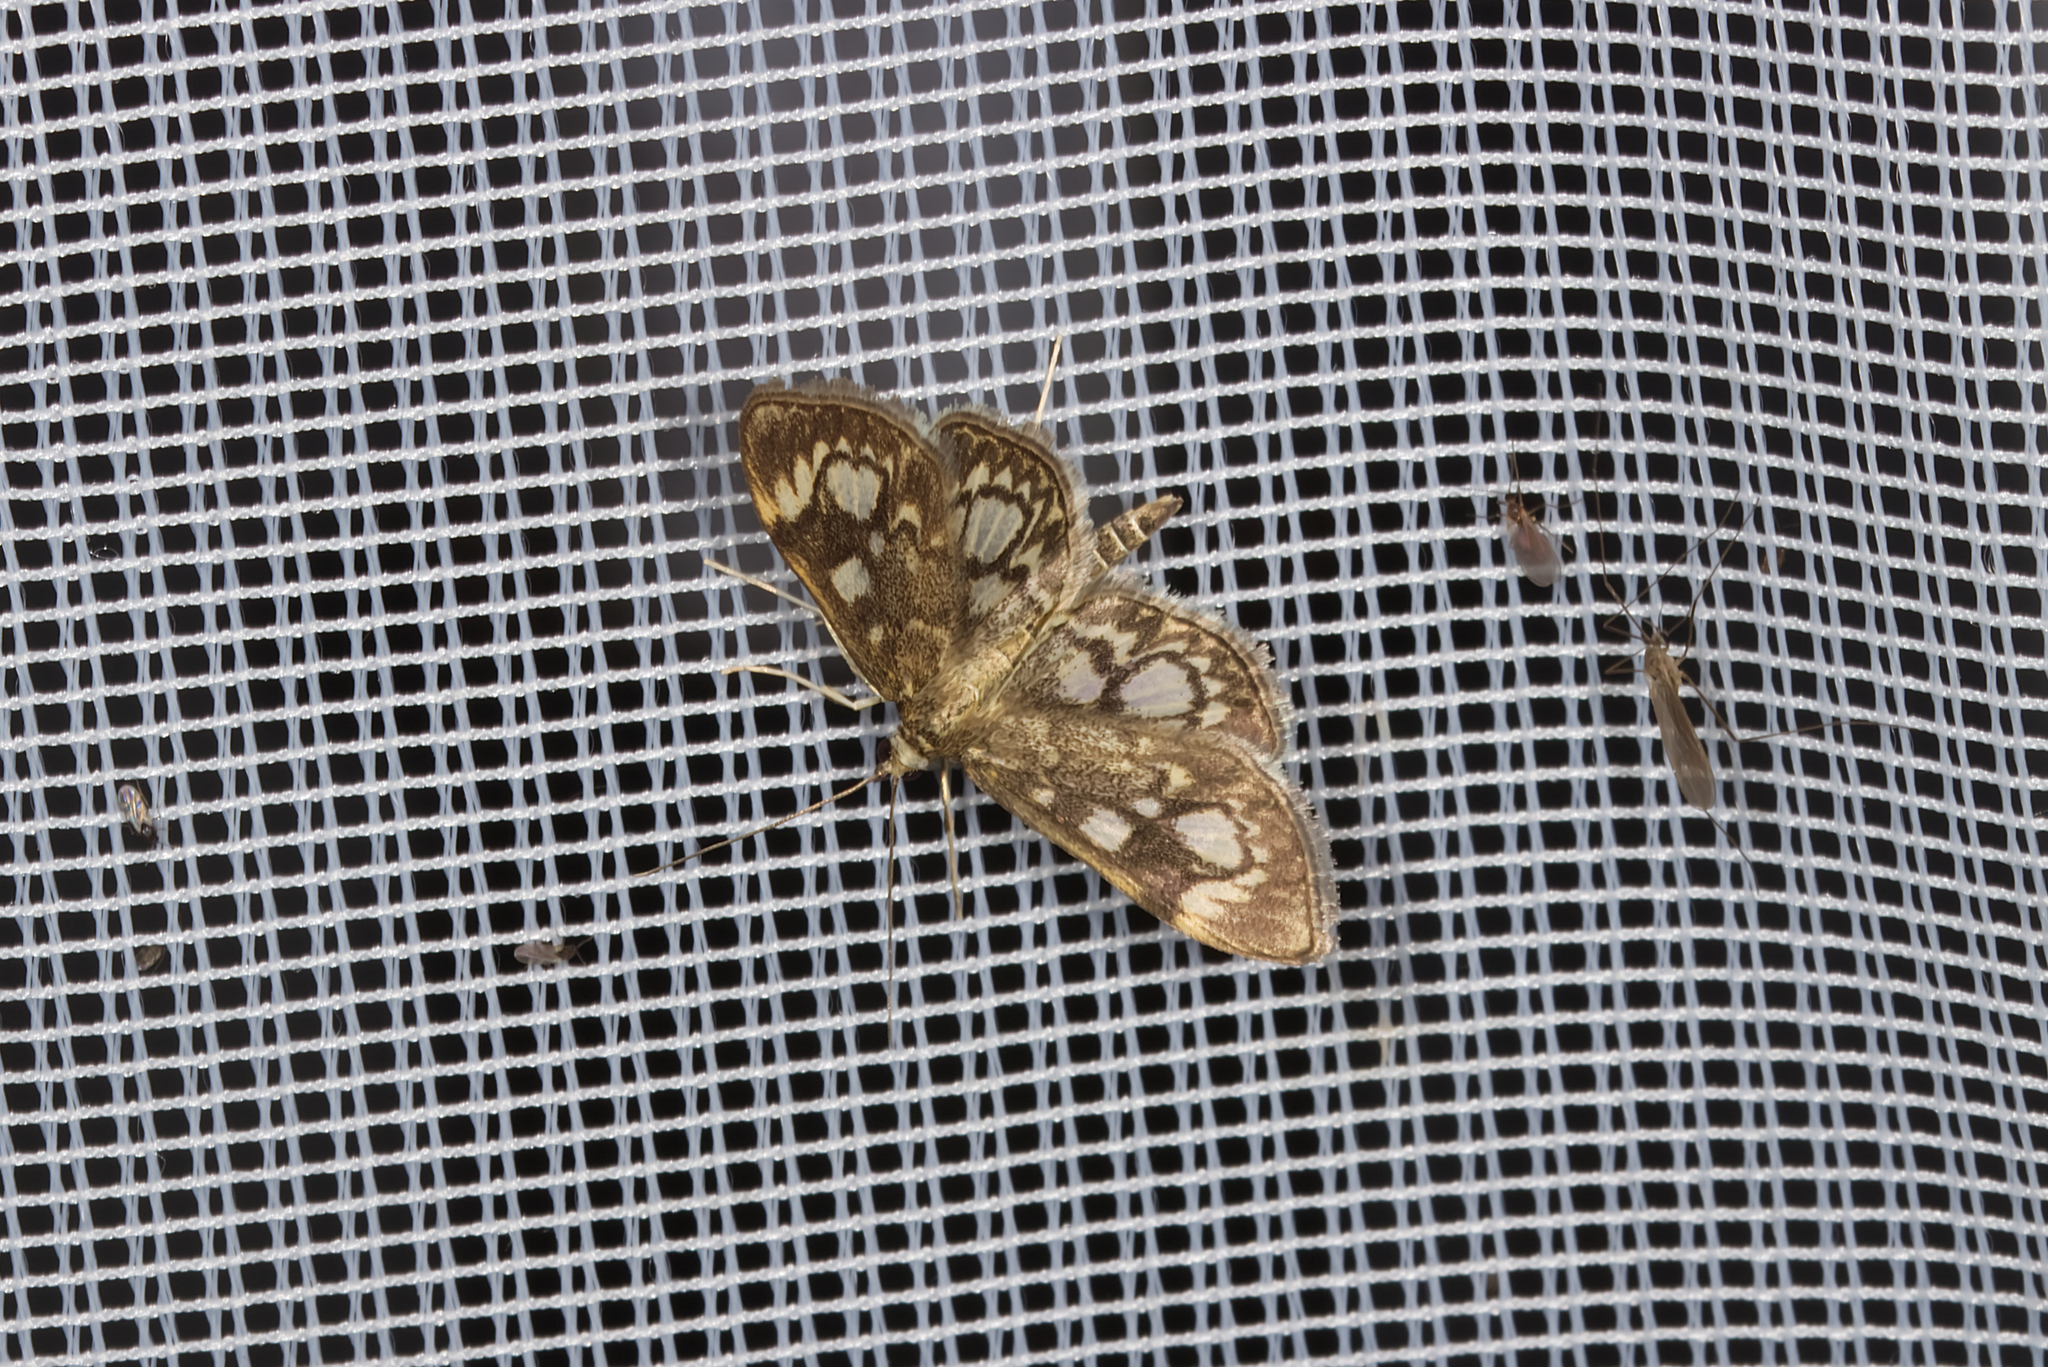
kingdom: Animalia
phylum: Arthropoda
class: Insecta
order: Lepidoptera
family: Crambidae
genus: Anania
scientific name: Anania coronata
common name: Elder pearl
